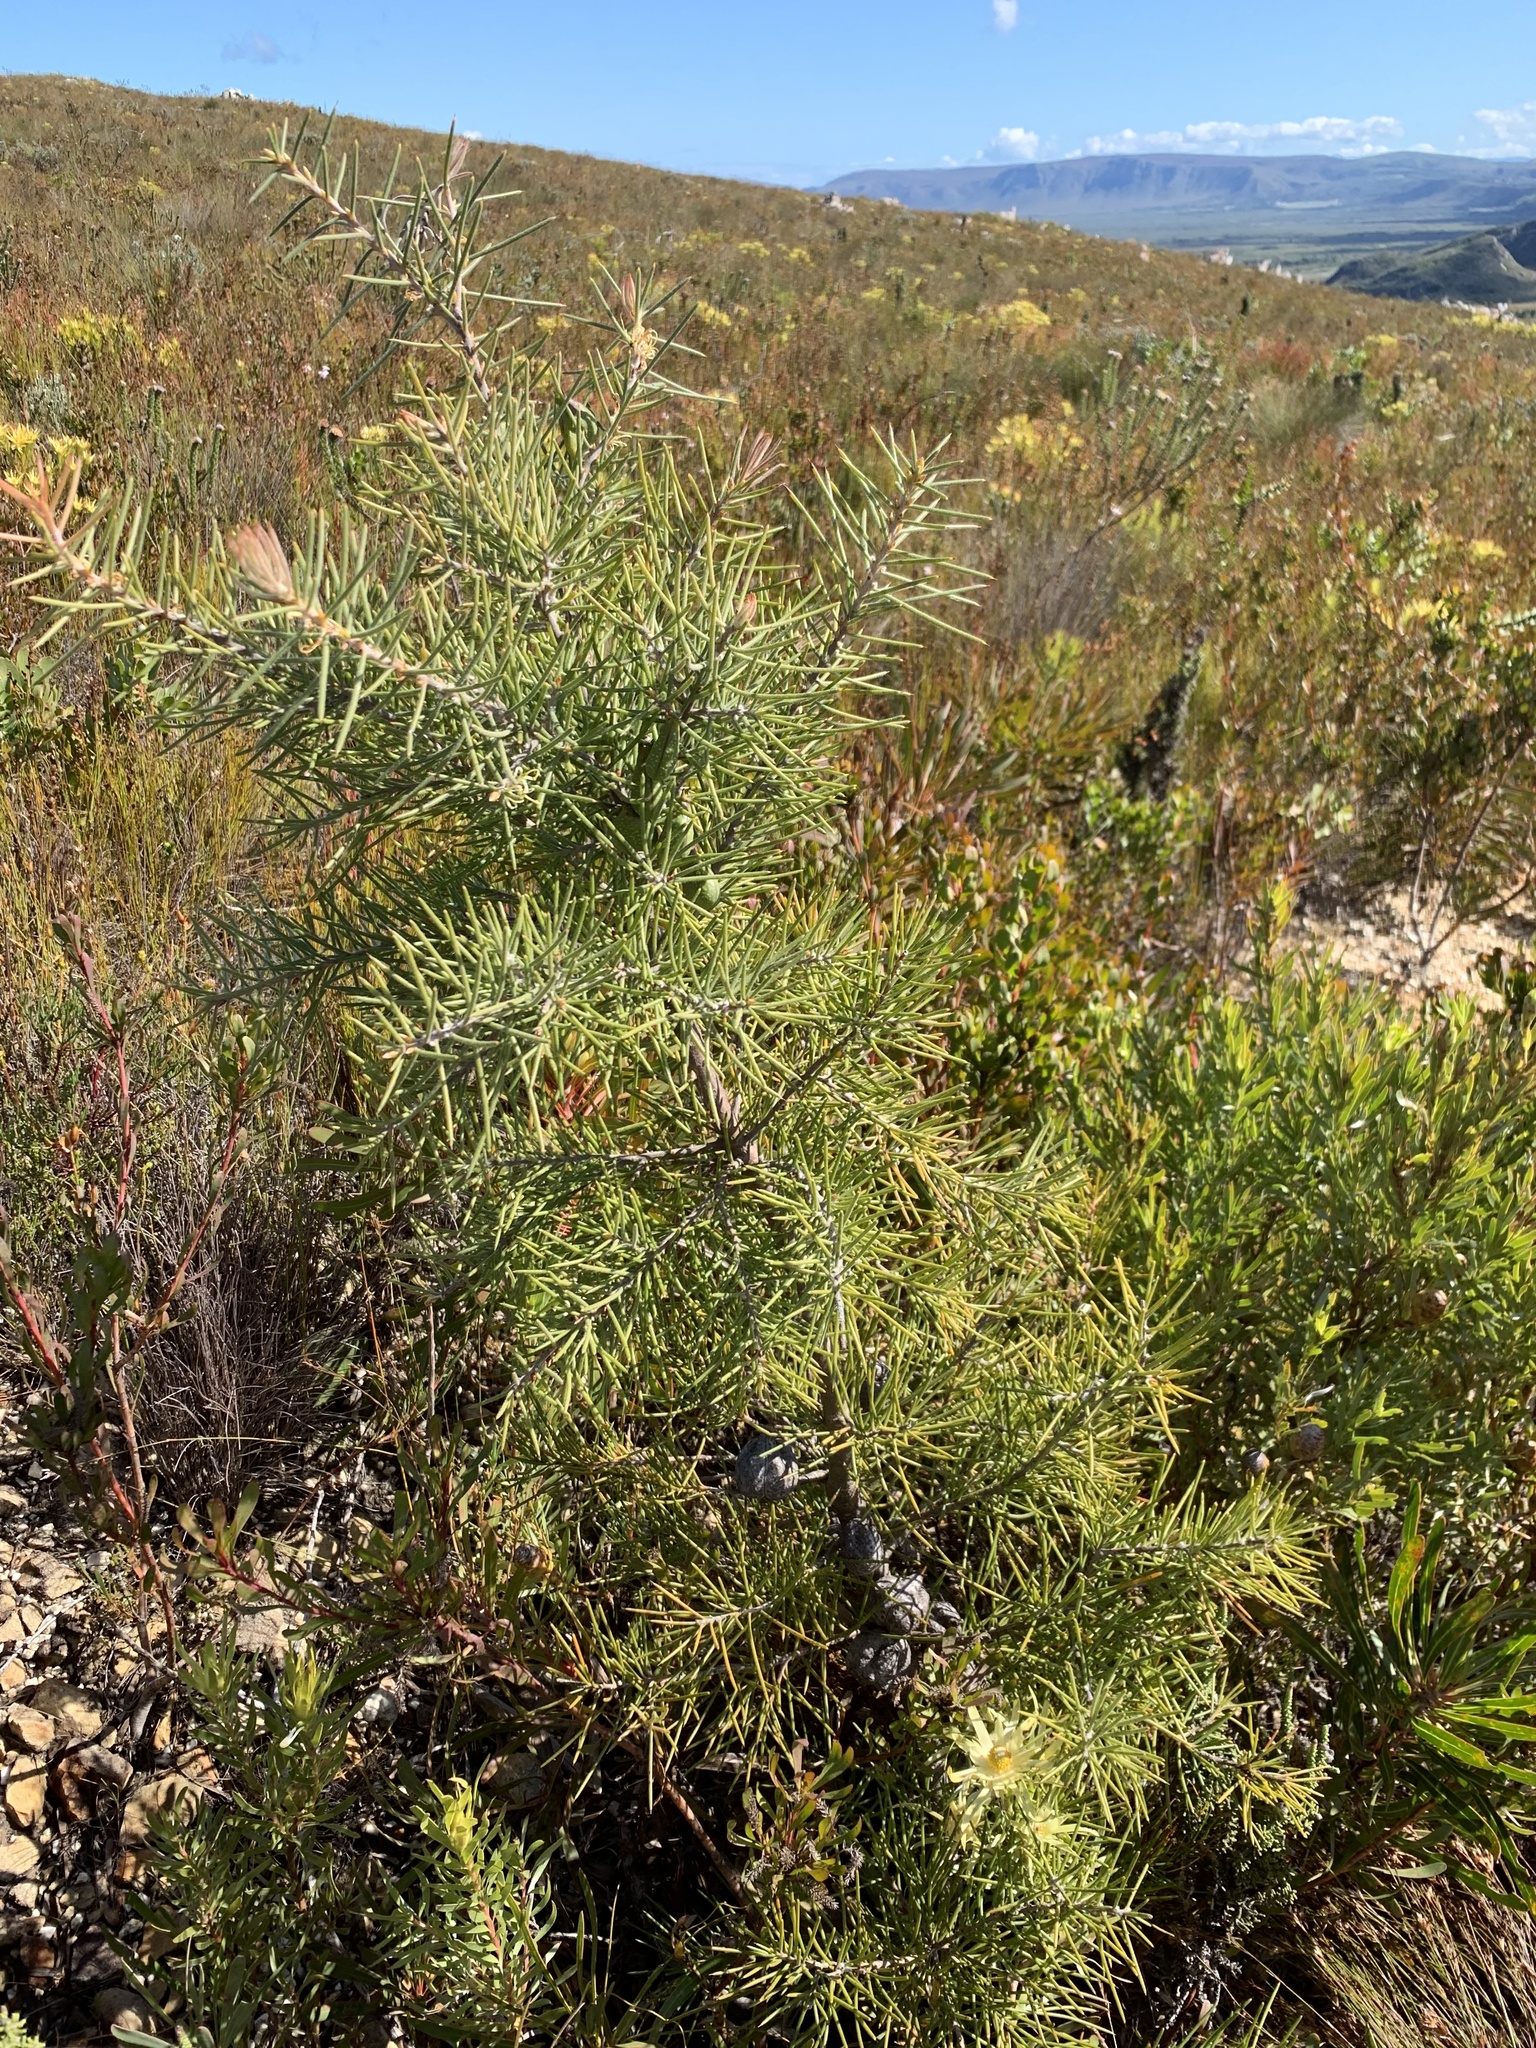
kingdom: Plantae
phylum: Tracheophyta
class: Magnoliopsida
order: Proteales
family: Proteaceae
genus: Hakea
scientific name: Hakea gibbosa
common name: Rock hakea
